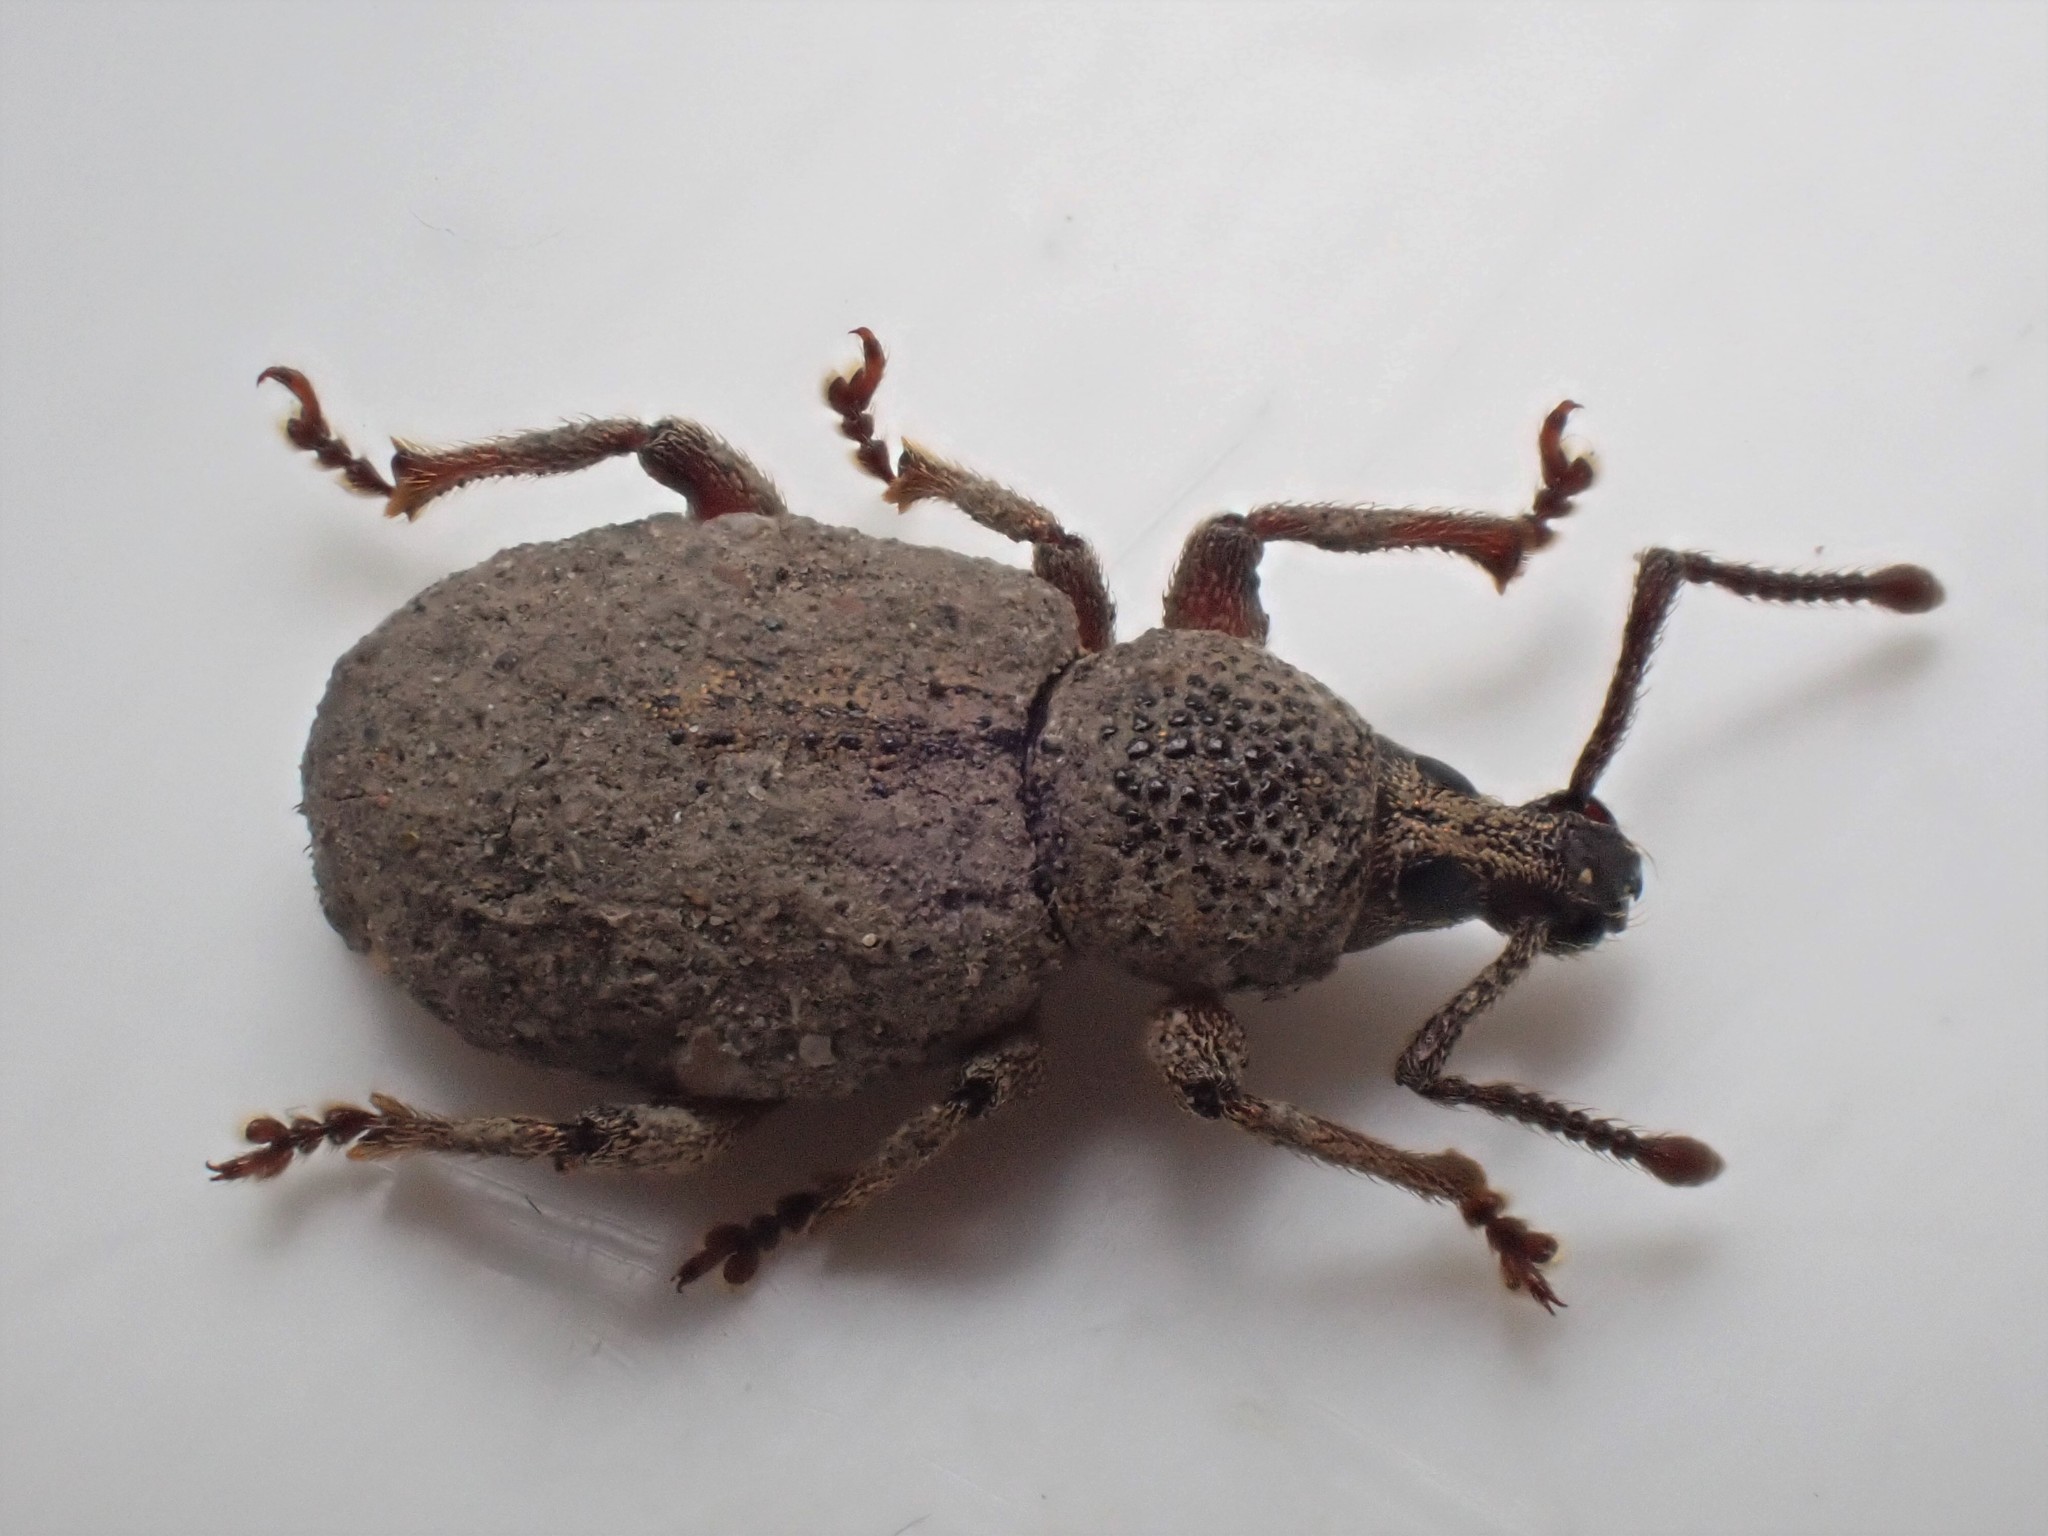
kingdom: Animalia
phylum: Arthropoda
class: Insecta
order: Coleoptera
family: Curculionidae
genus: Otiorhynchus
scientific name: Otiorhynchus singularis
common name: Clay-coloured weevil
